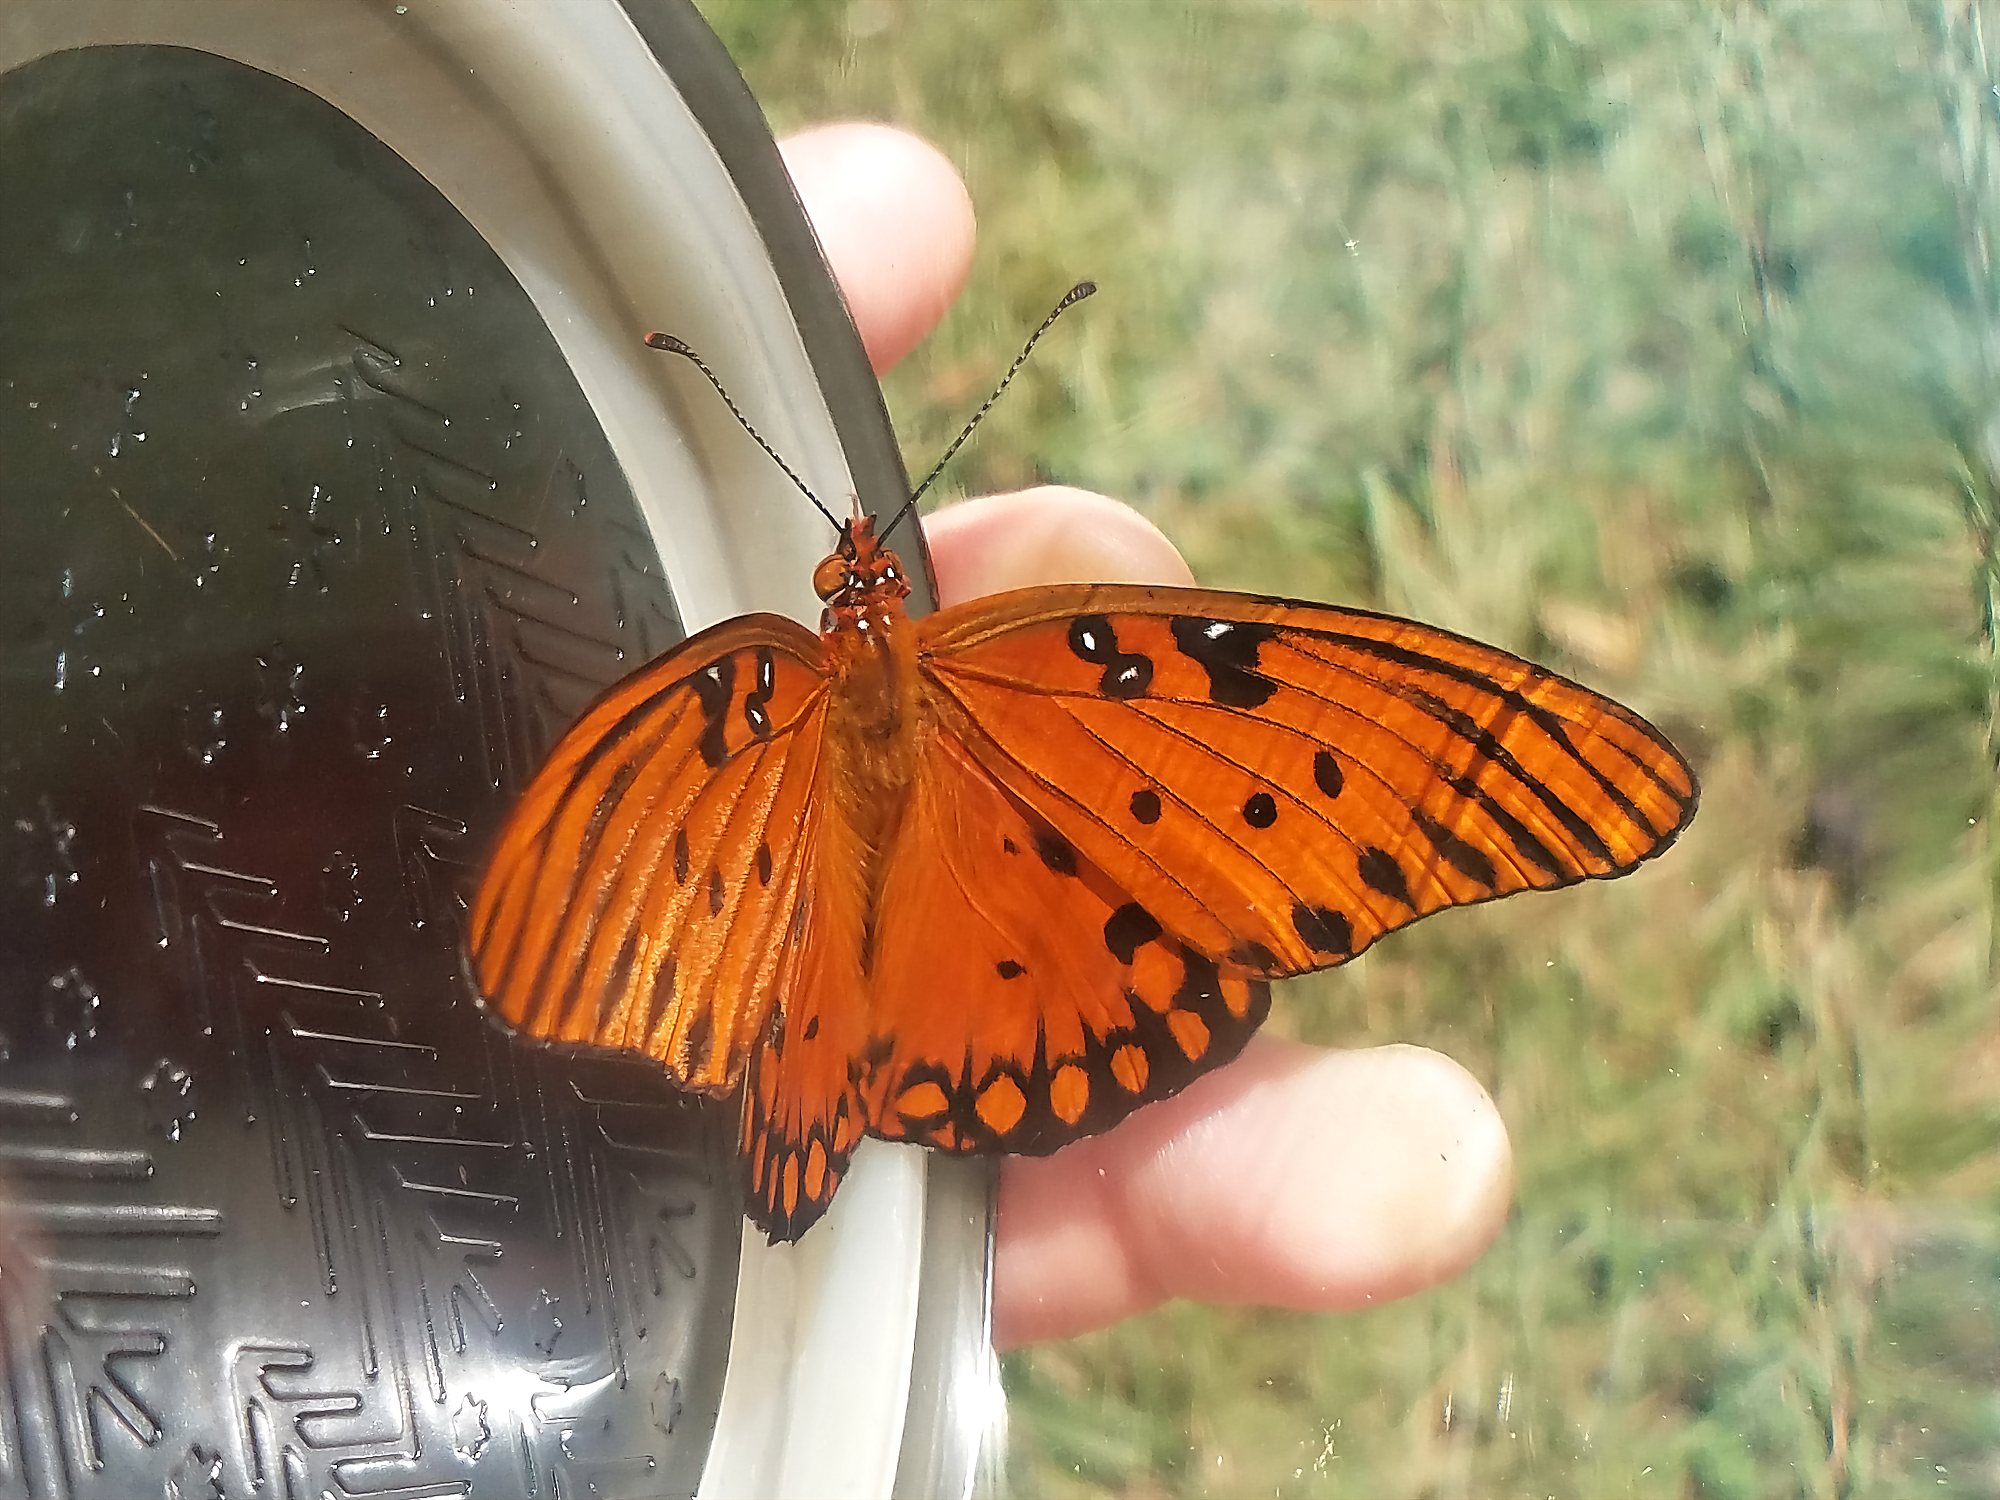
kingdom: Animalia
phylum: Arthropoda
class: Insecta
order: Lepidoptera
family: Nymphalidae
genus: Dione
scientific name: Dione vanillae
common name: Gulf fritillary
